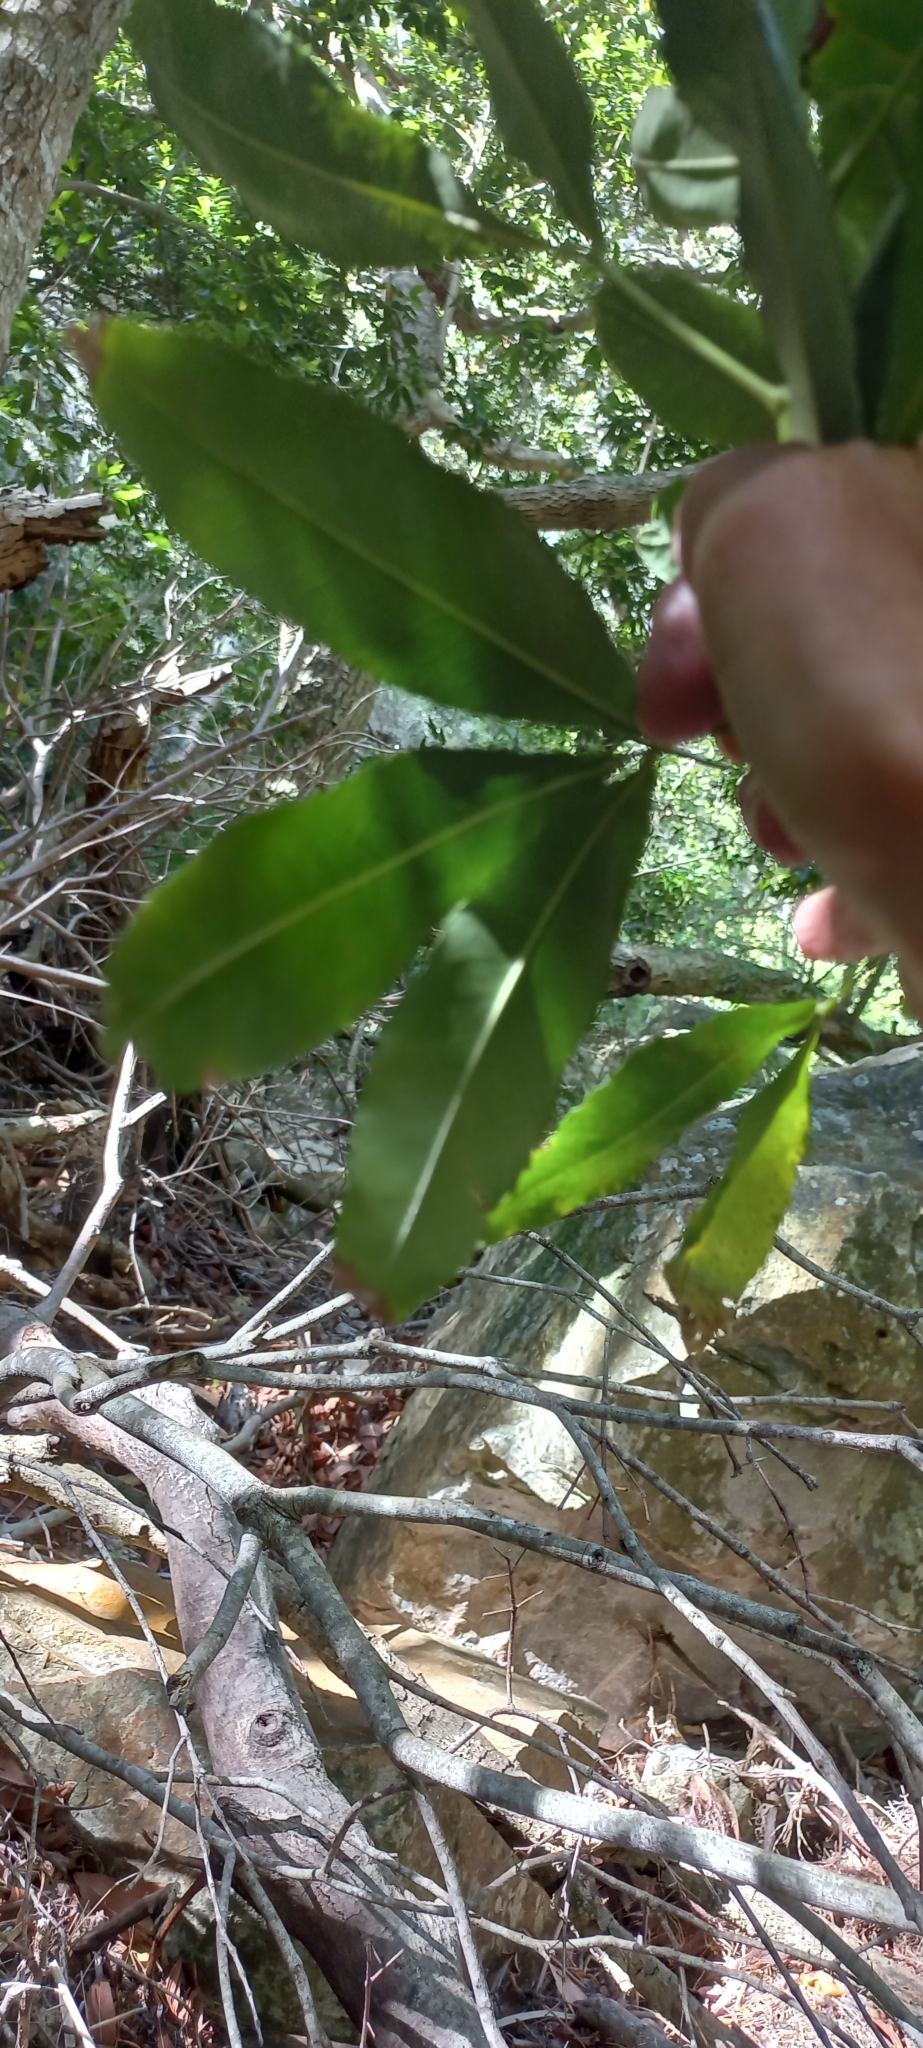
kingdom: Plantae
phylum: Tracheophyta
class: Magnoliopsida
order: Oxalidales
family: Cunoniaceae
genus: Platylophus
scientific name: Platylophus trifoliatus
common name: White alder
